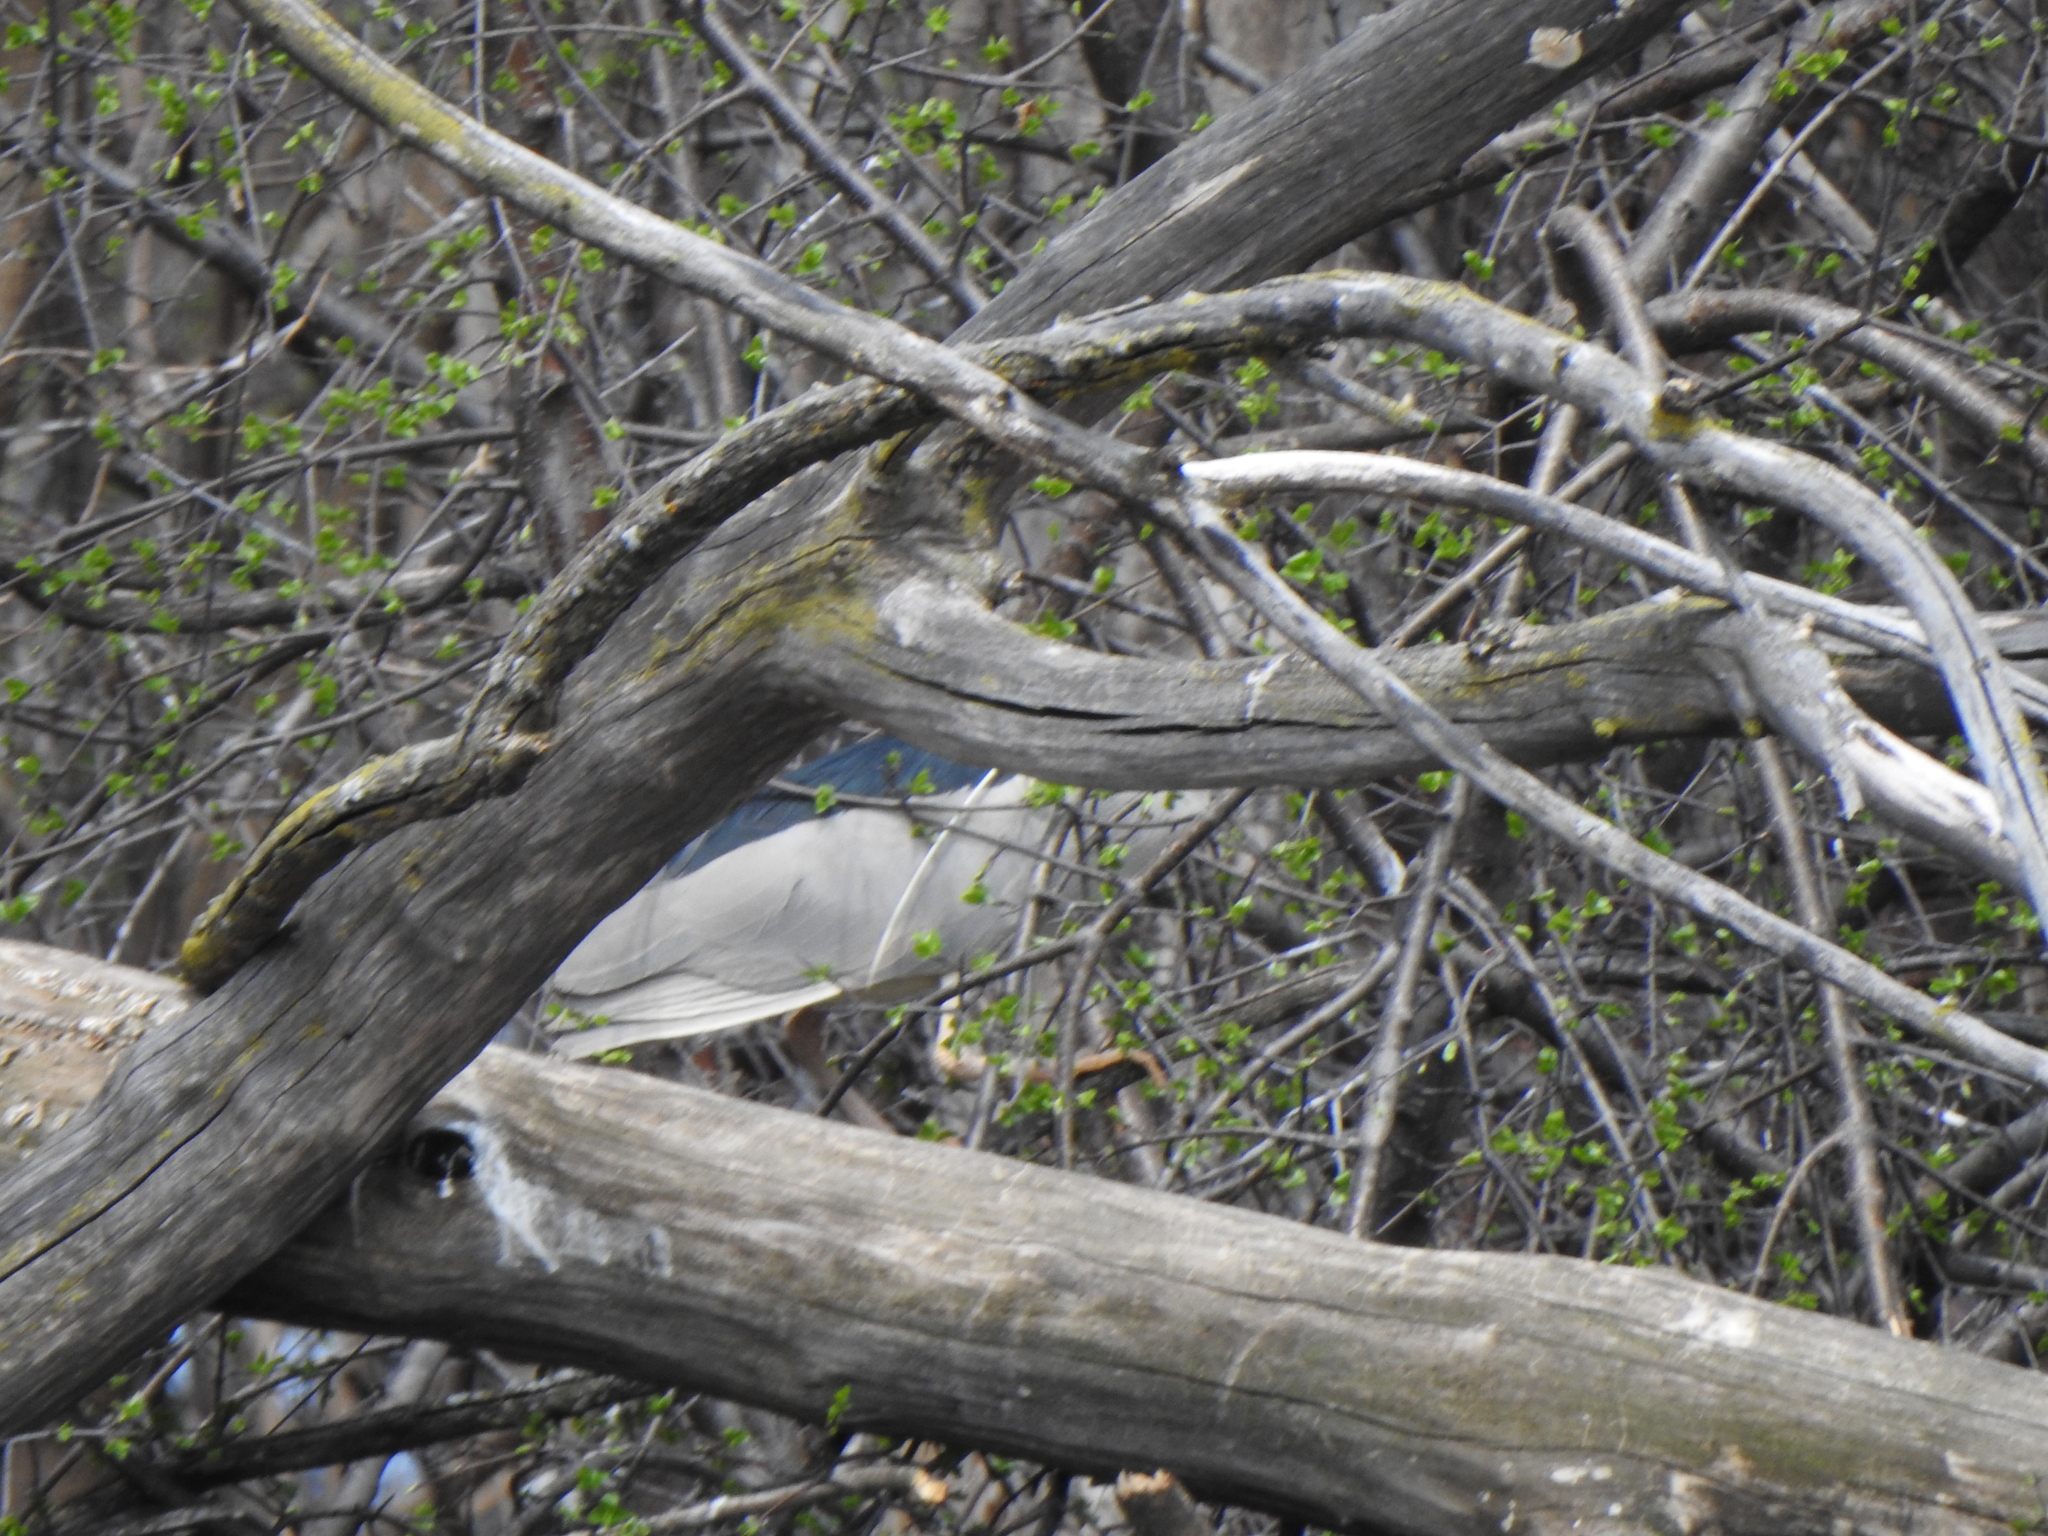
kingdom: Animalia
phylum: Chordata
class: Aves
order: Pelecaniformes
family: Ardeidae
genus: Nycticorax
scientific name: Nycticorax nycticorax
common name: Black-crowned night heron
